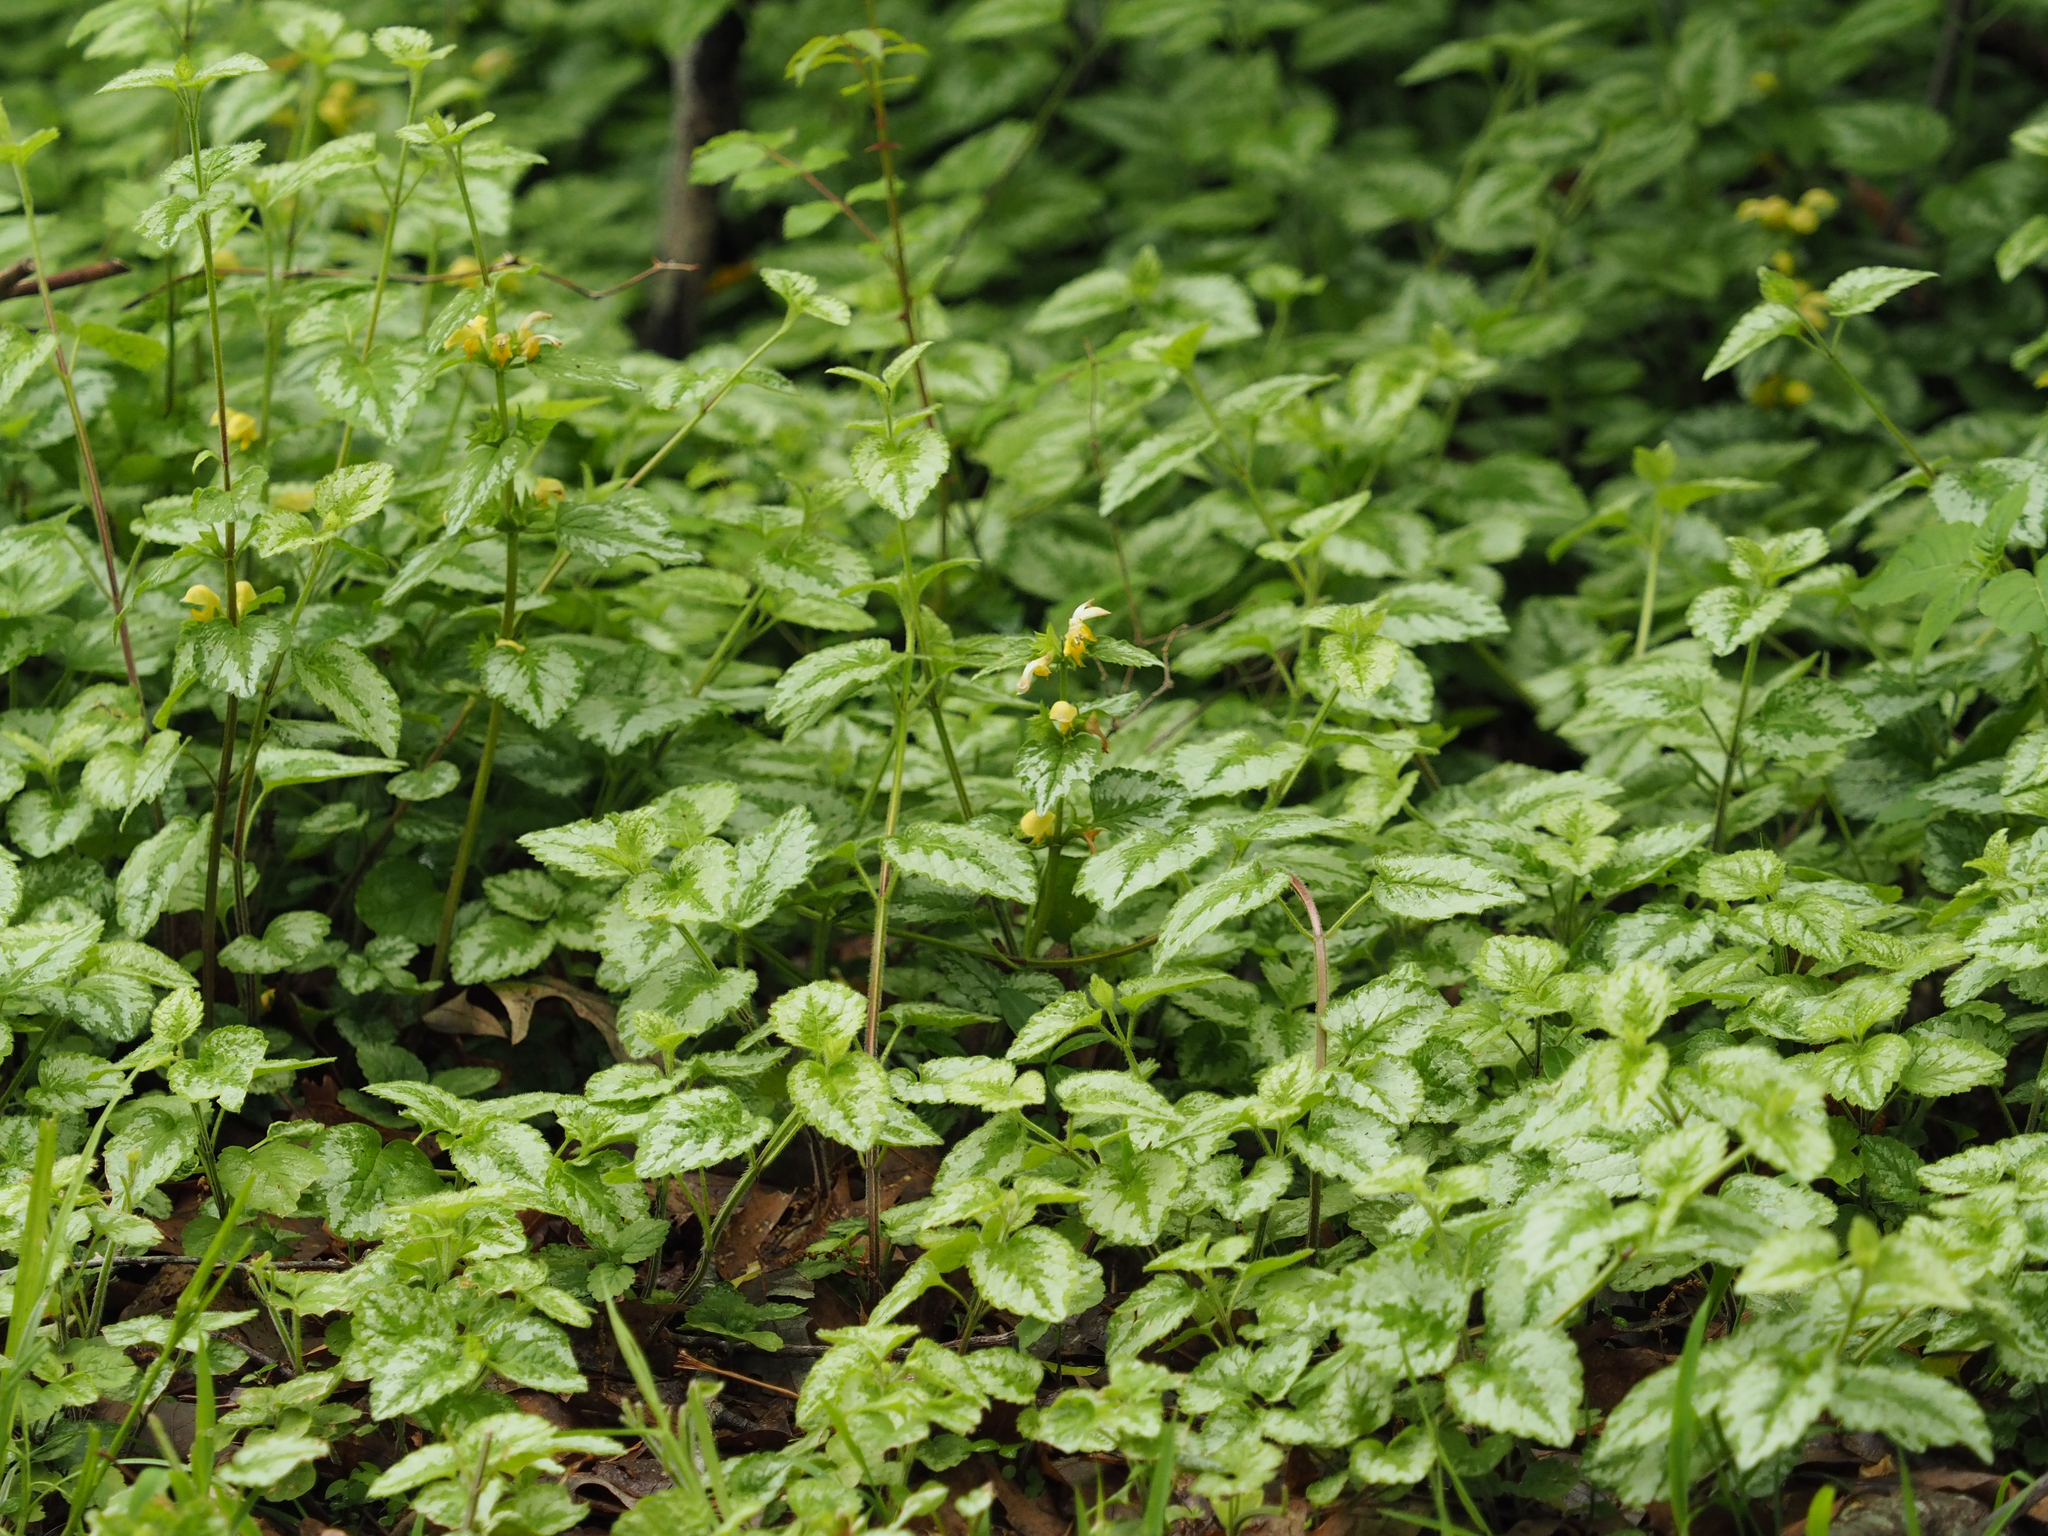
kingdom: Plantae
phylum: Tracheophyta
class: Magnoliopsida
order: Lamiales
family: Lamiaceae
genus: Lamium
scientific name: Lamium galeobdolon
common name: Yellow archangel
